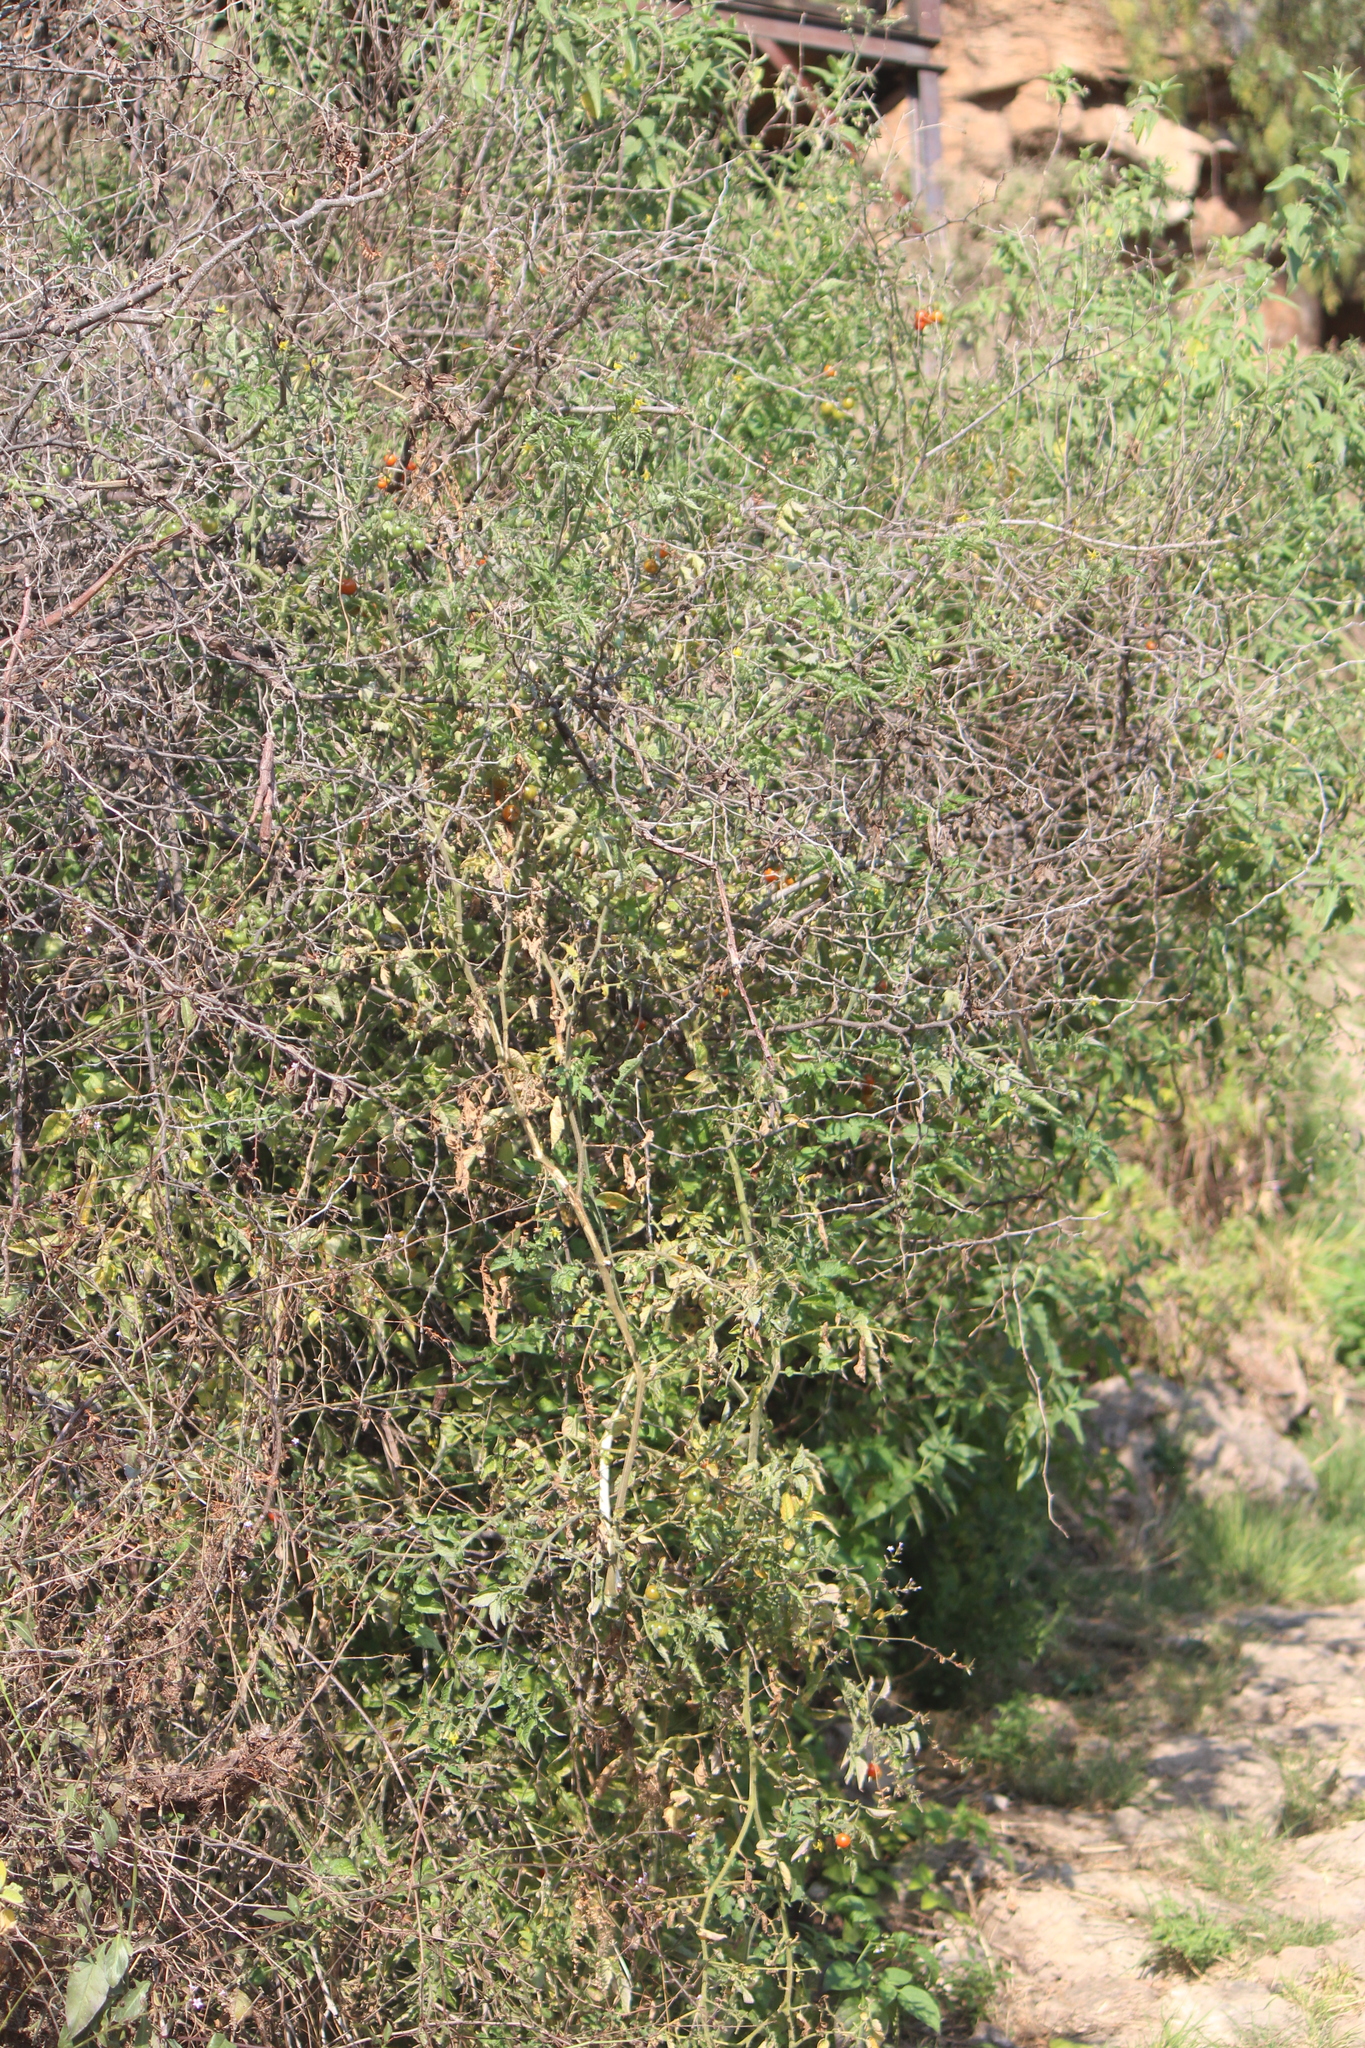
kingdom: Plantae
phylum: Tracheophyta
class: Magnoliopsida
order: Solanales
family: Solanaceae
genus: Solanum
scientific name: Solanum lycopersicum
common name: Garden tomato
